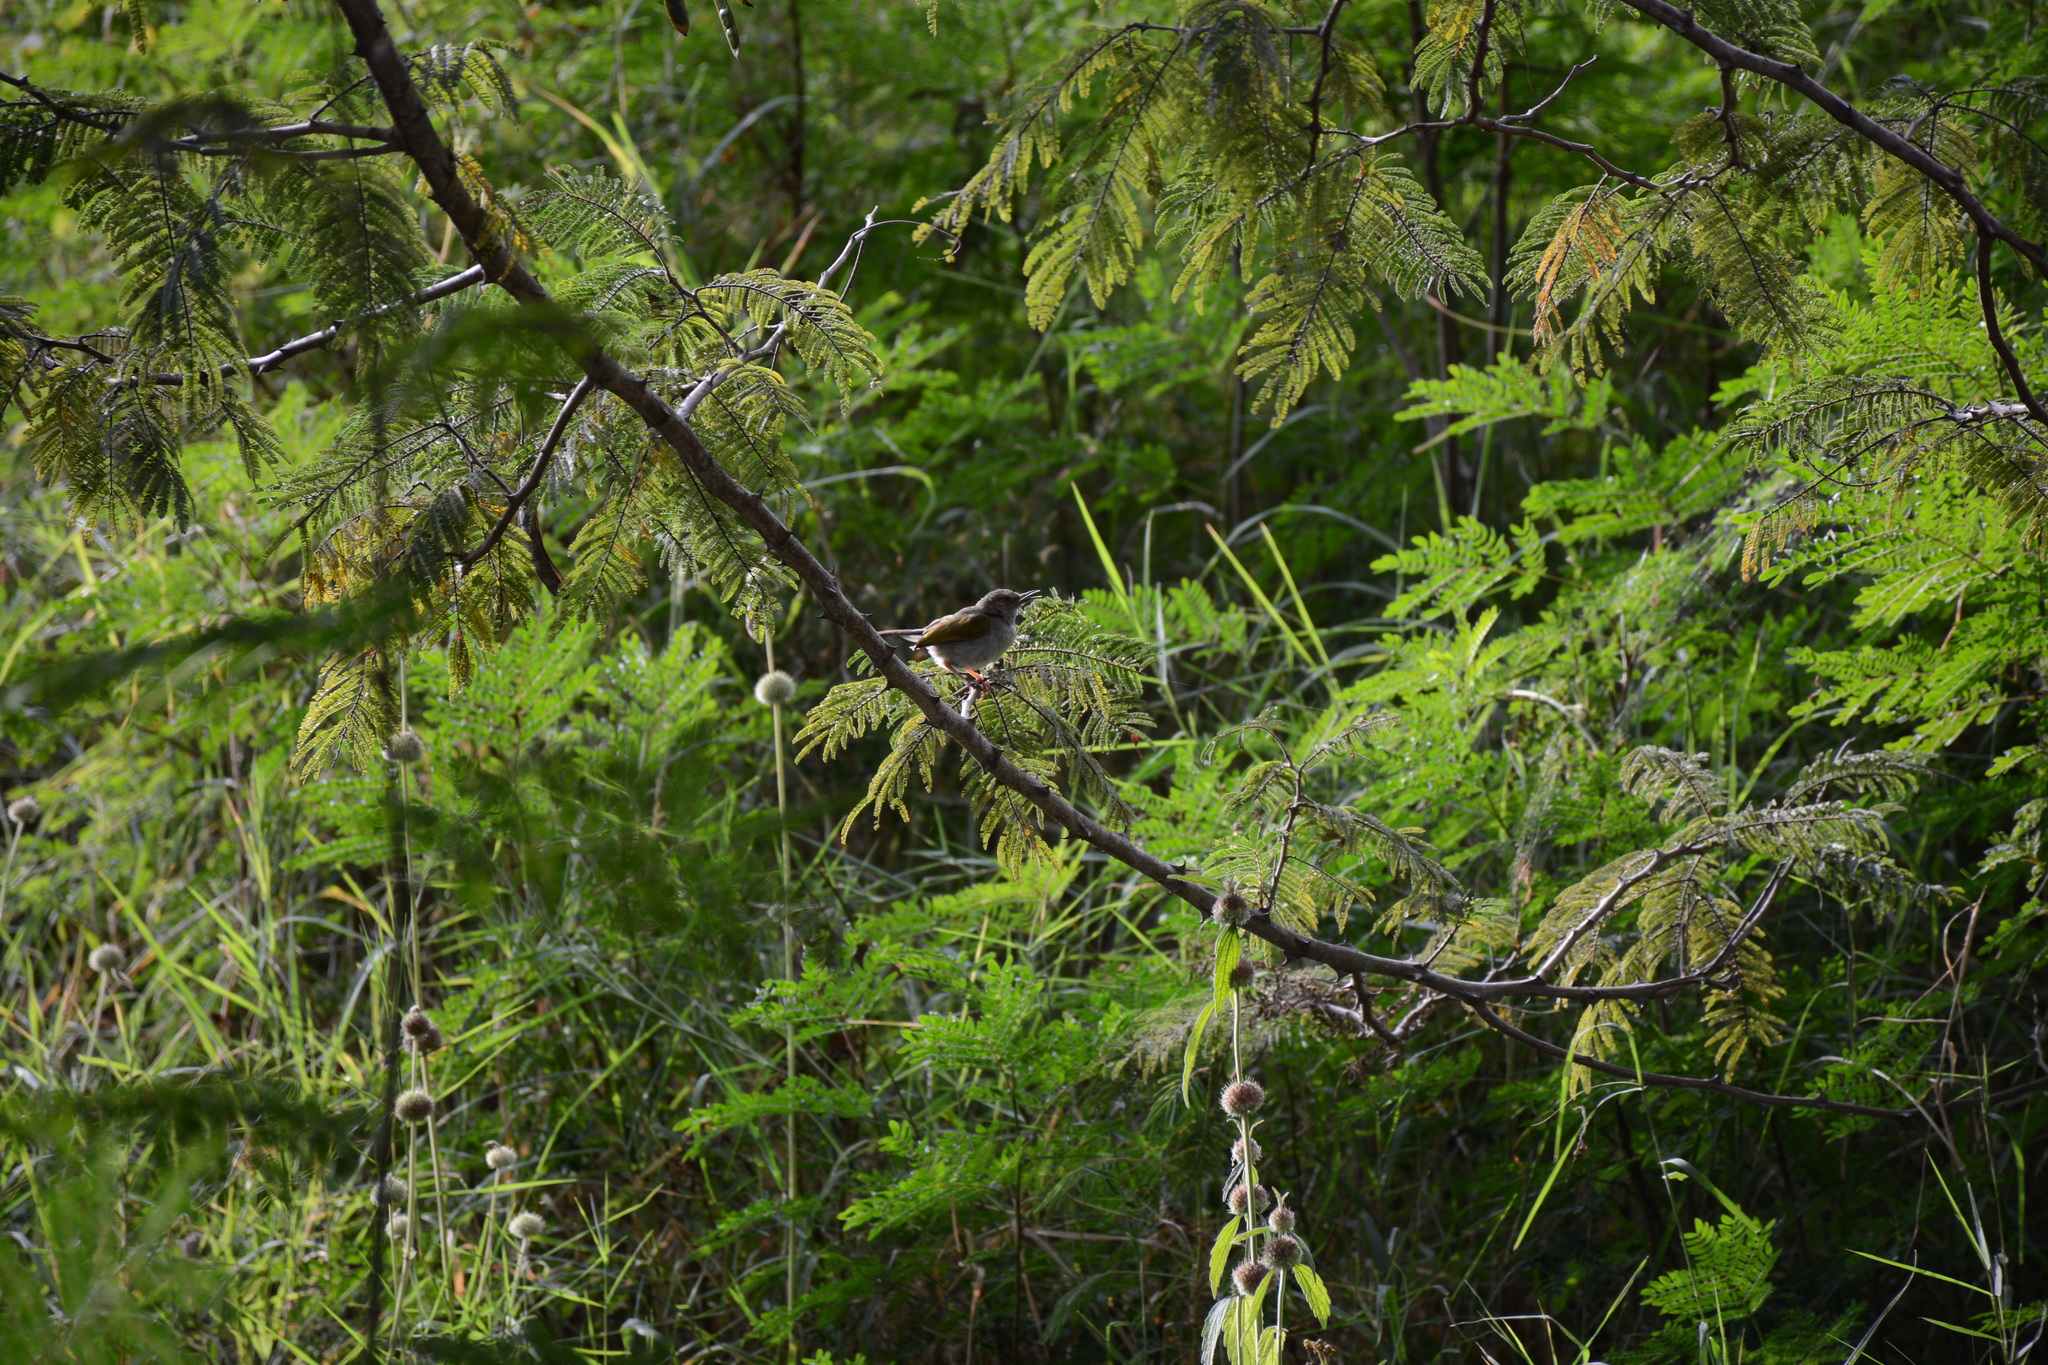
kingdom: Animalia
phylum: Chordata
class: Aves
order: Passeriformes
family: Cisticolidae
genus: Camaroptera
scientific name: Camaroptera brachyura
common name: Green-backed camaroptera
